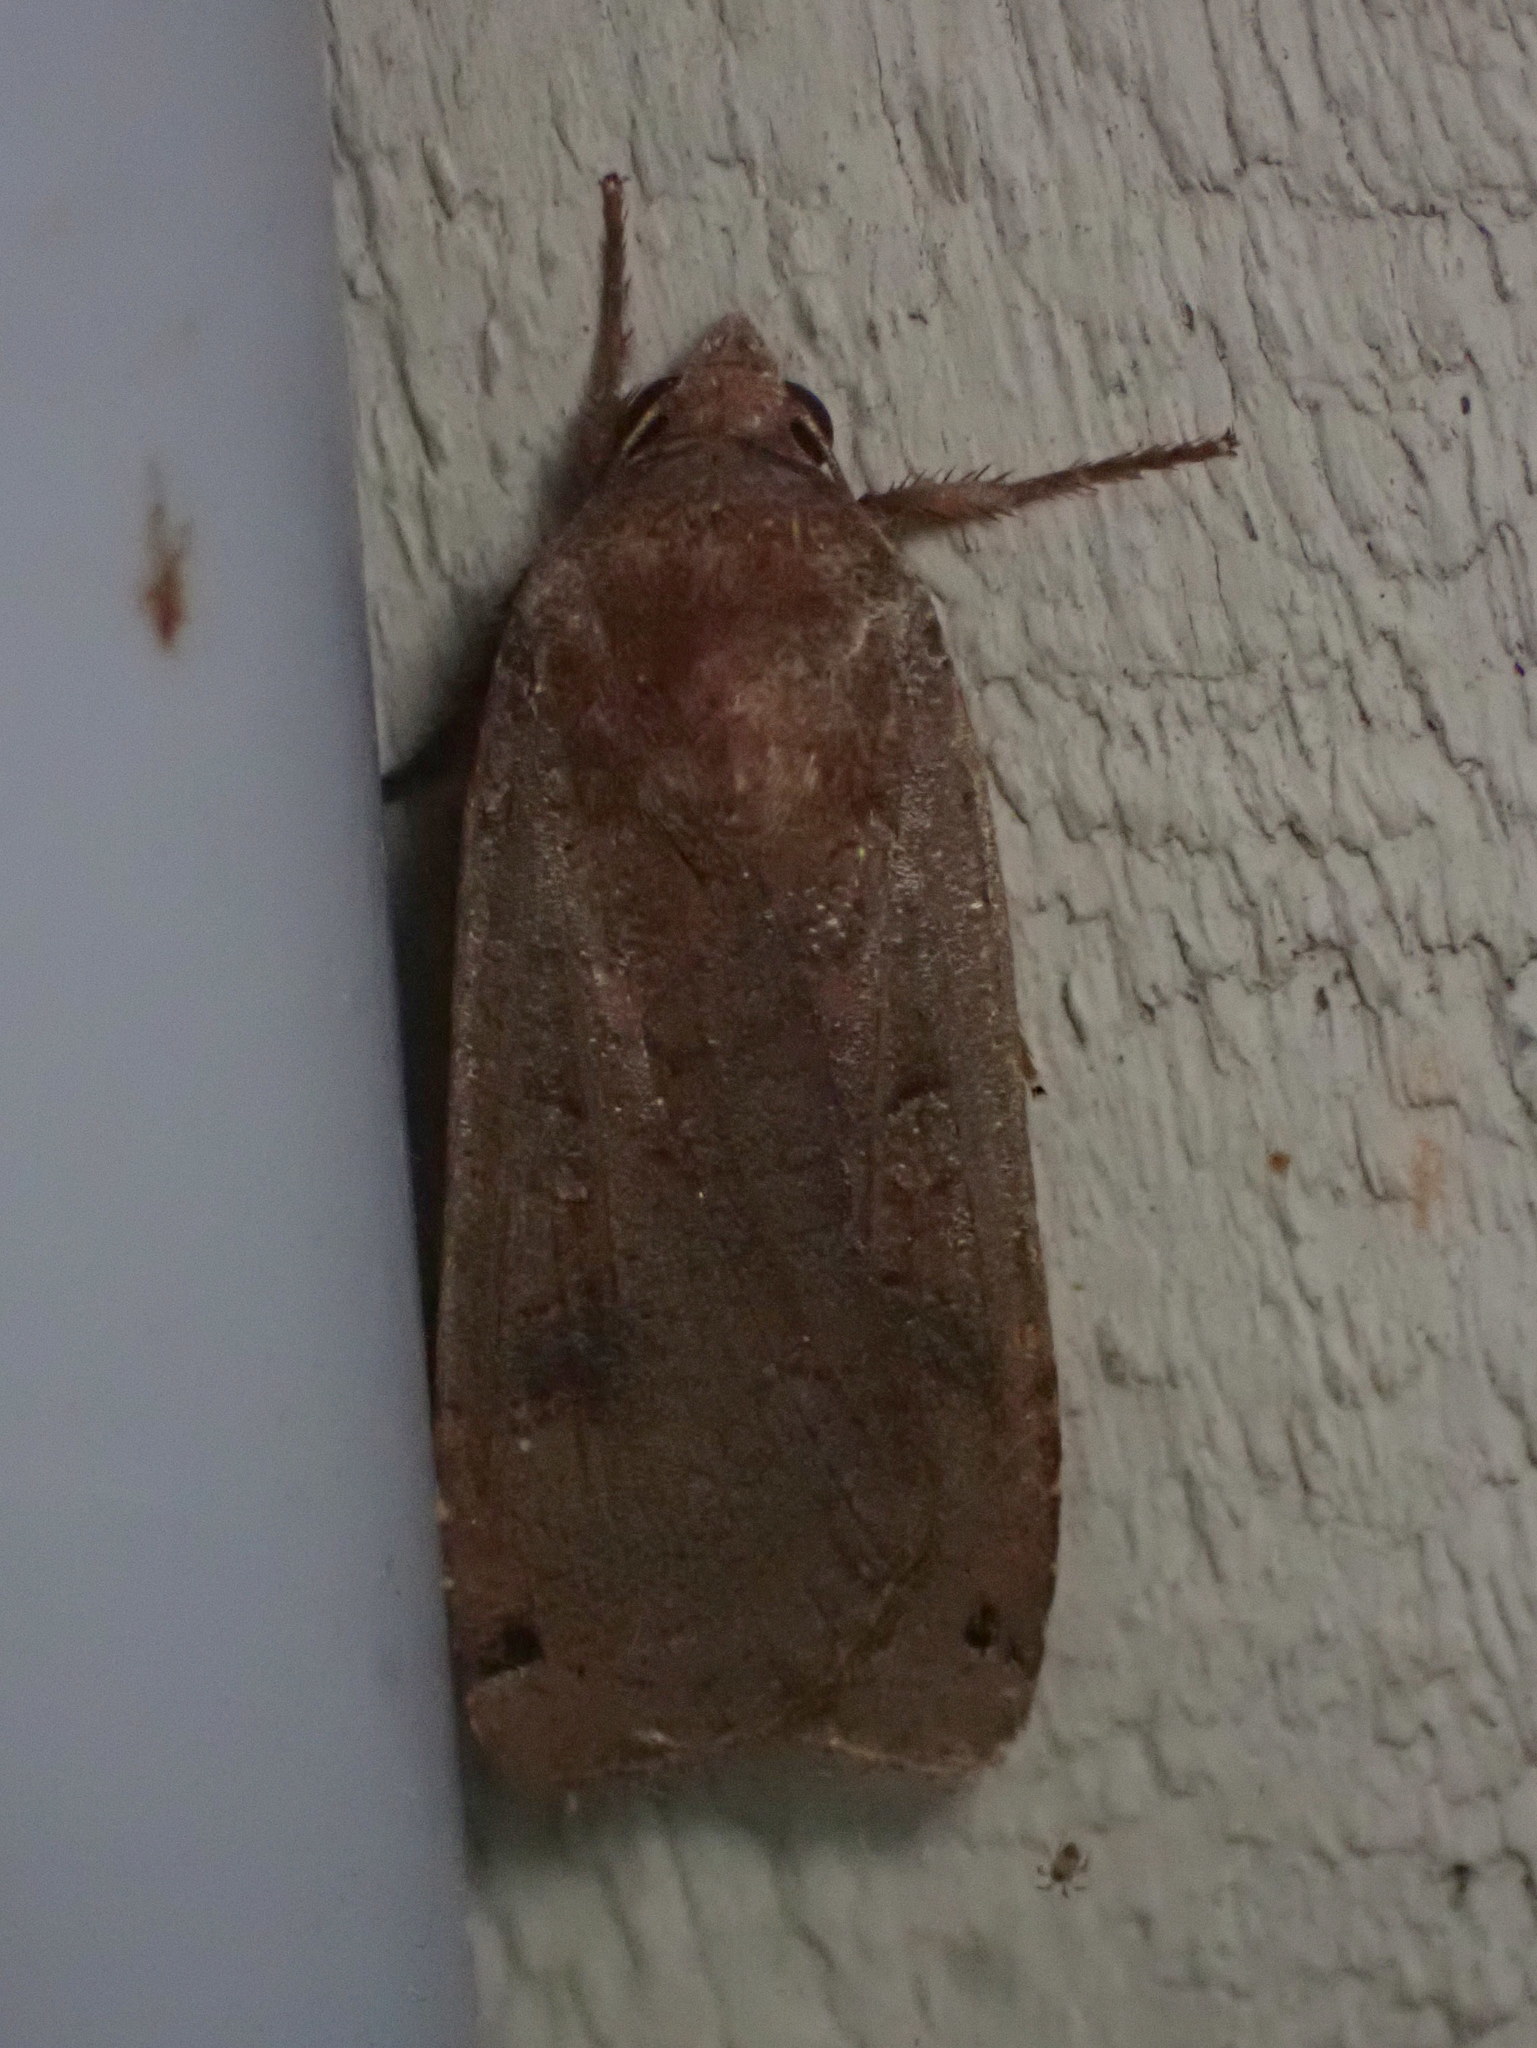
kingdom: Animalia
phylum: Arthropoda
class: Insecta
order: Lepidoptera
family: Noctuidae
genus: Noctua
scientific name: Noctua pronuba
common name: Large yellow underwing
